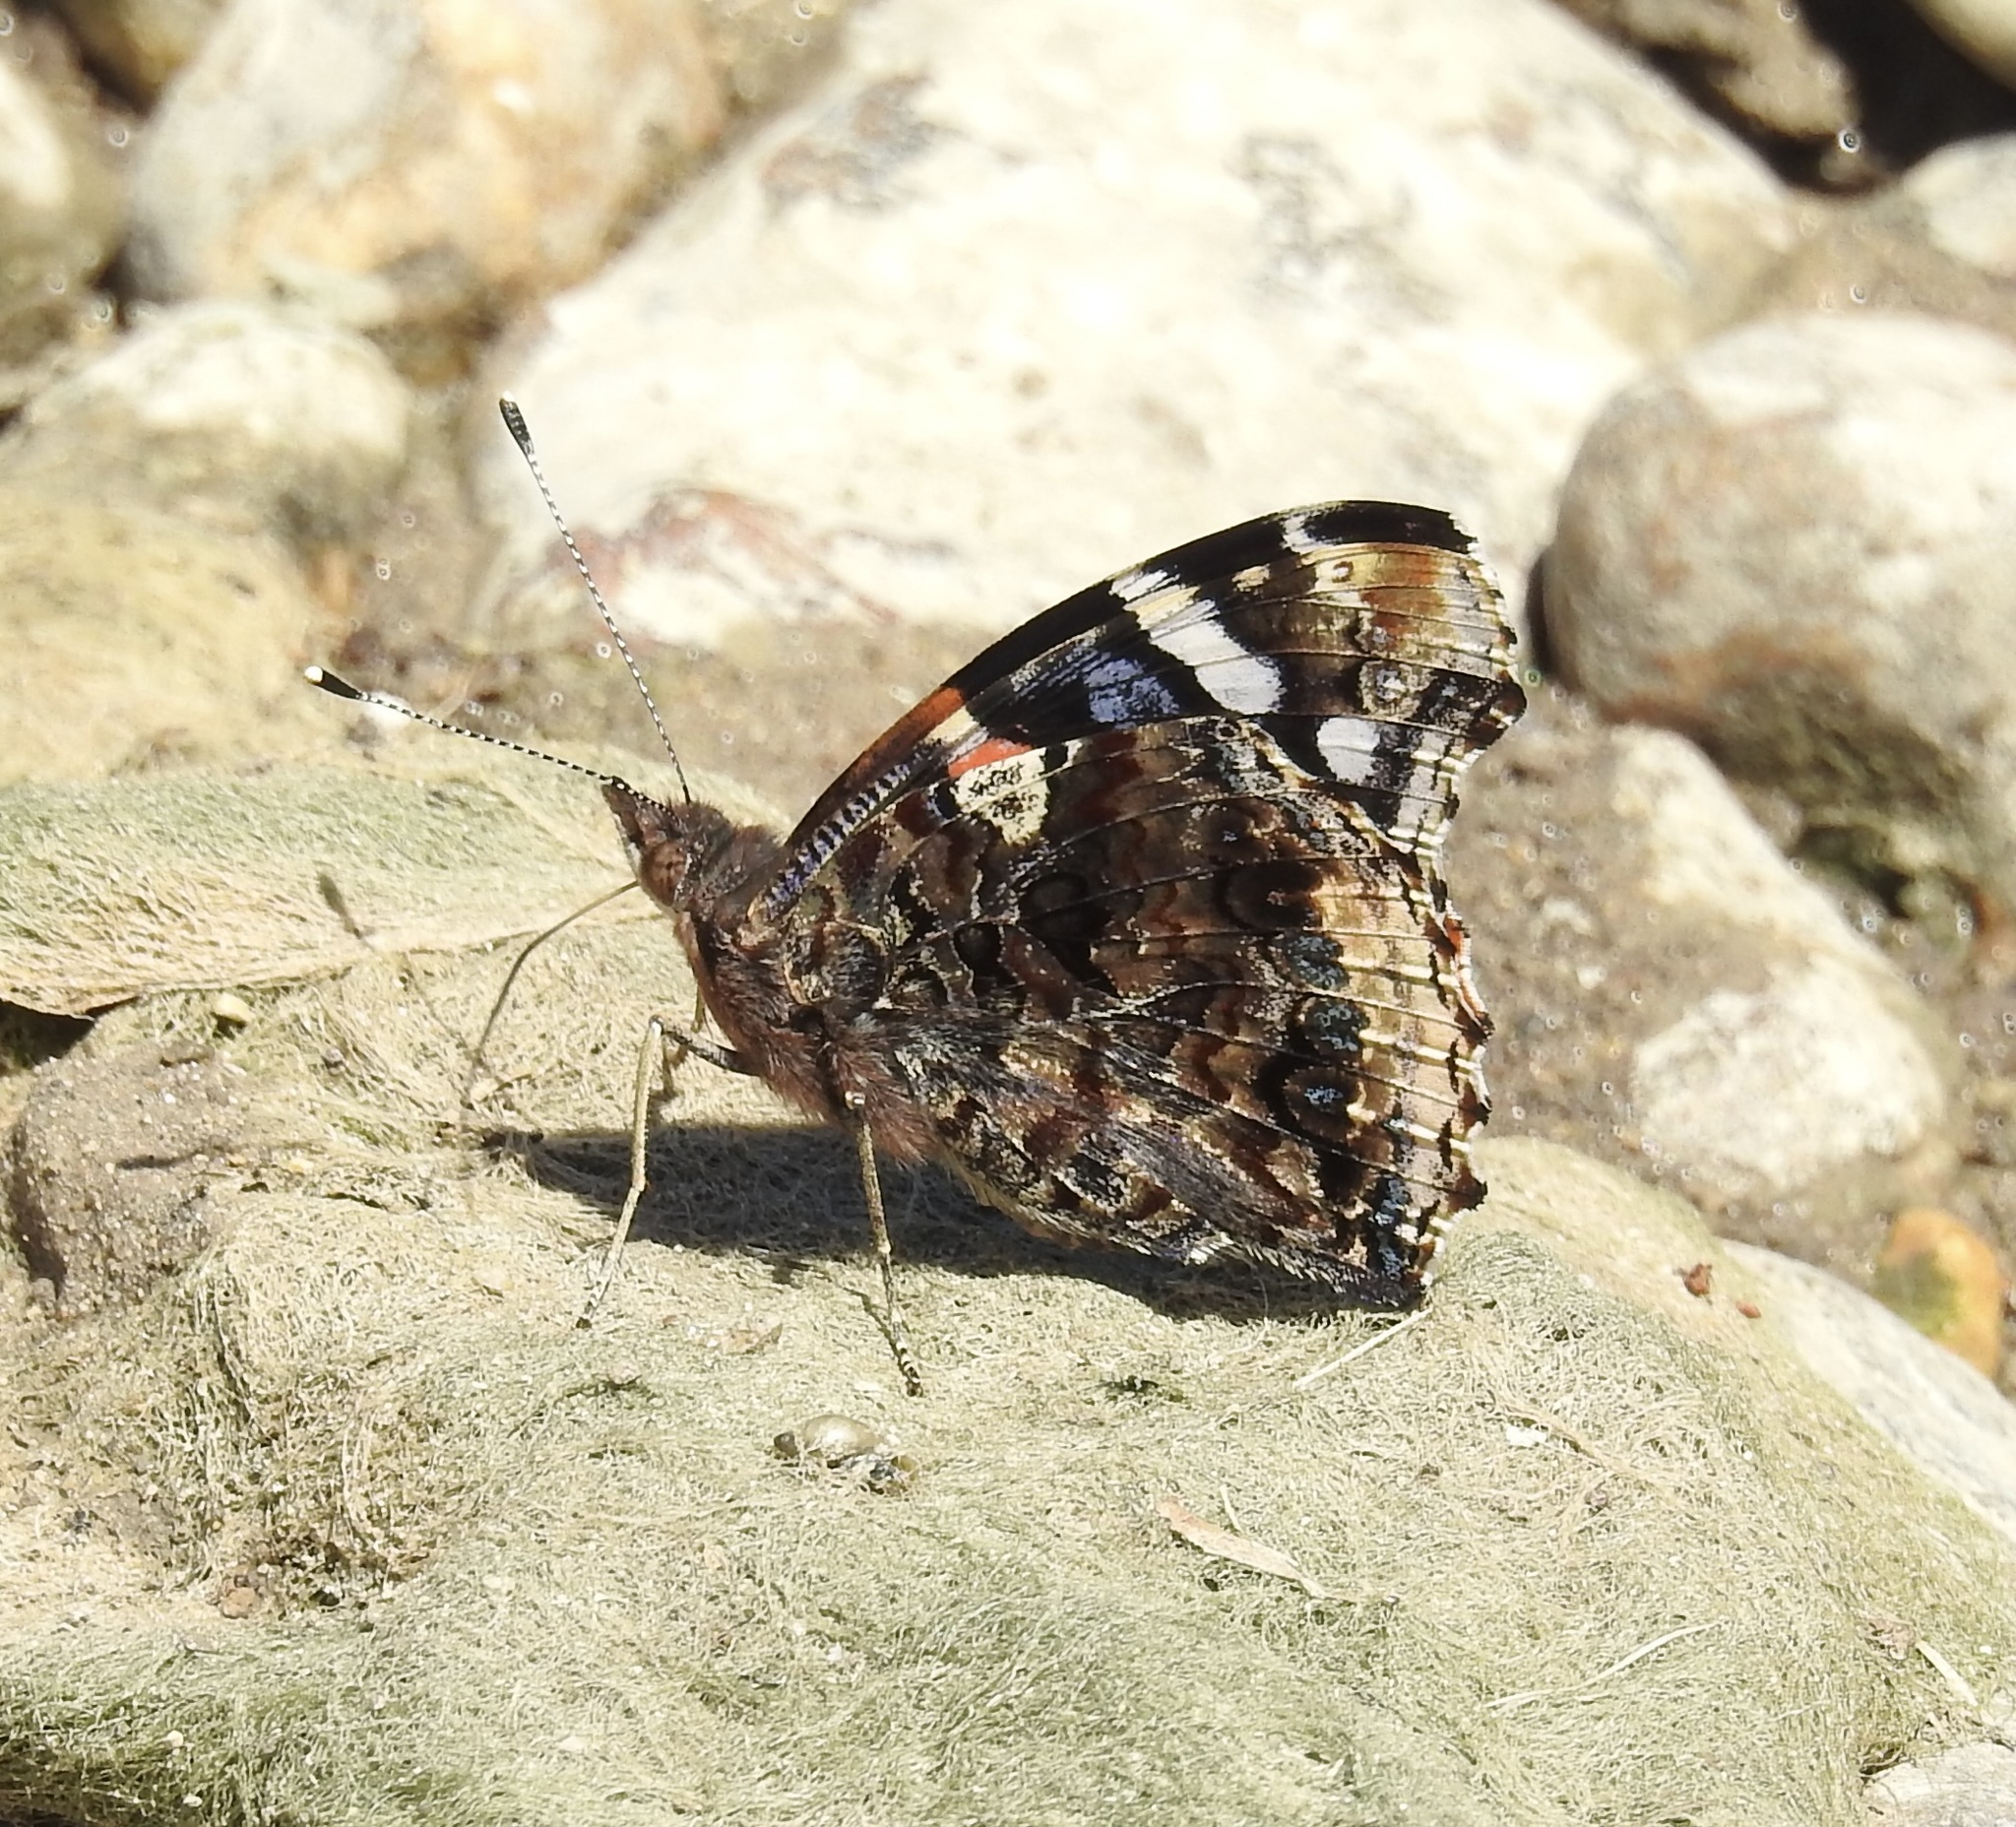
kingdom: Animalia
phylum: Arthropoda
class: Insecta
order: Lepidoptera
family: Nymphalidae
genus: Vanessa
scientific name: Vanessa atalanta
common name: Red admiral
